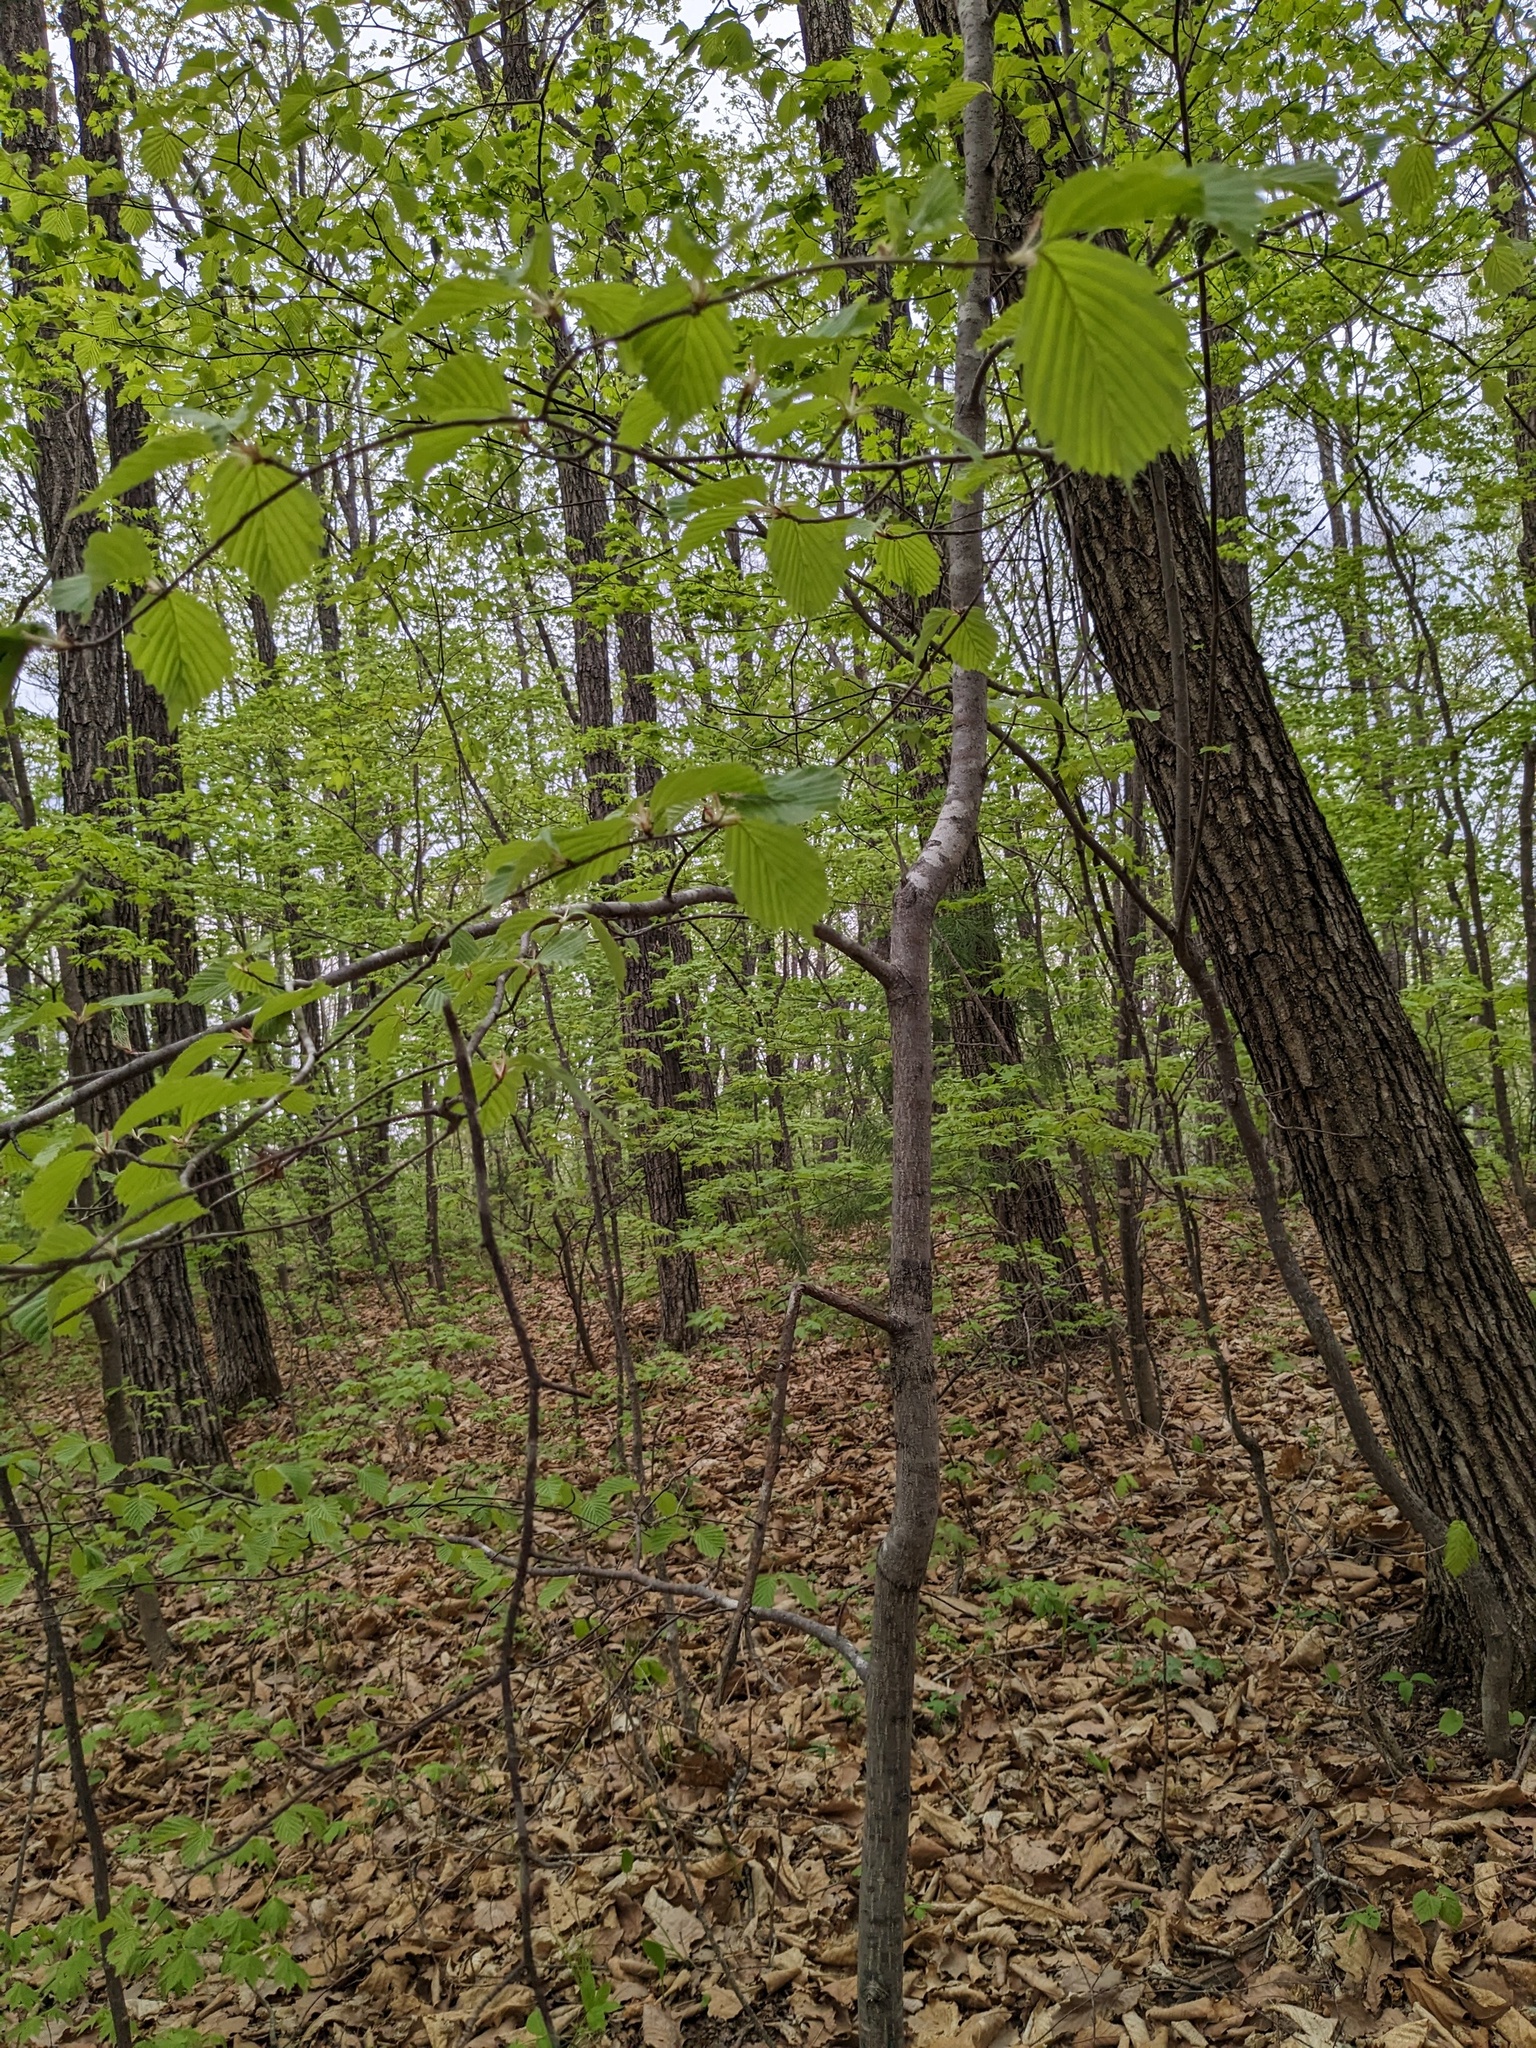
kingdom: Plantae
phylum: Tracheophyta
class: Magnoliopsida
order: Rosales
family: Rosaceae
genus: Sorbus
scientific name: Sorbus alnifolia
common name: Mountain-ash
